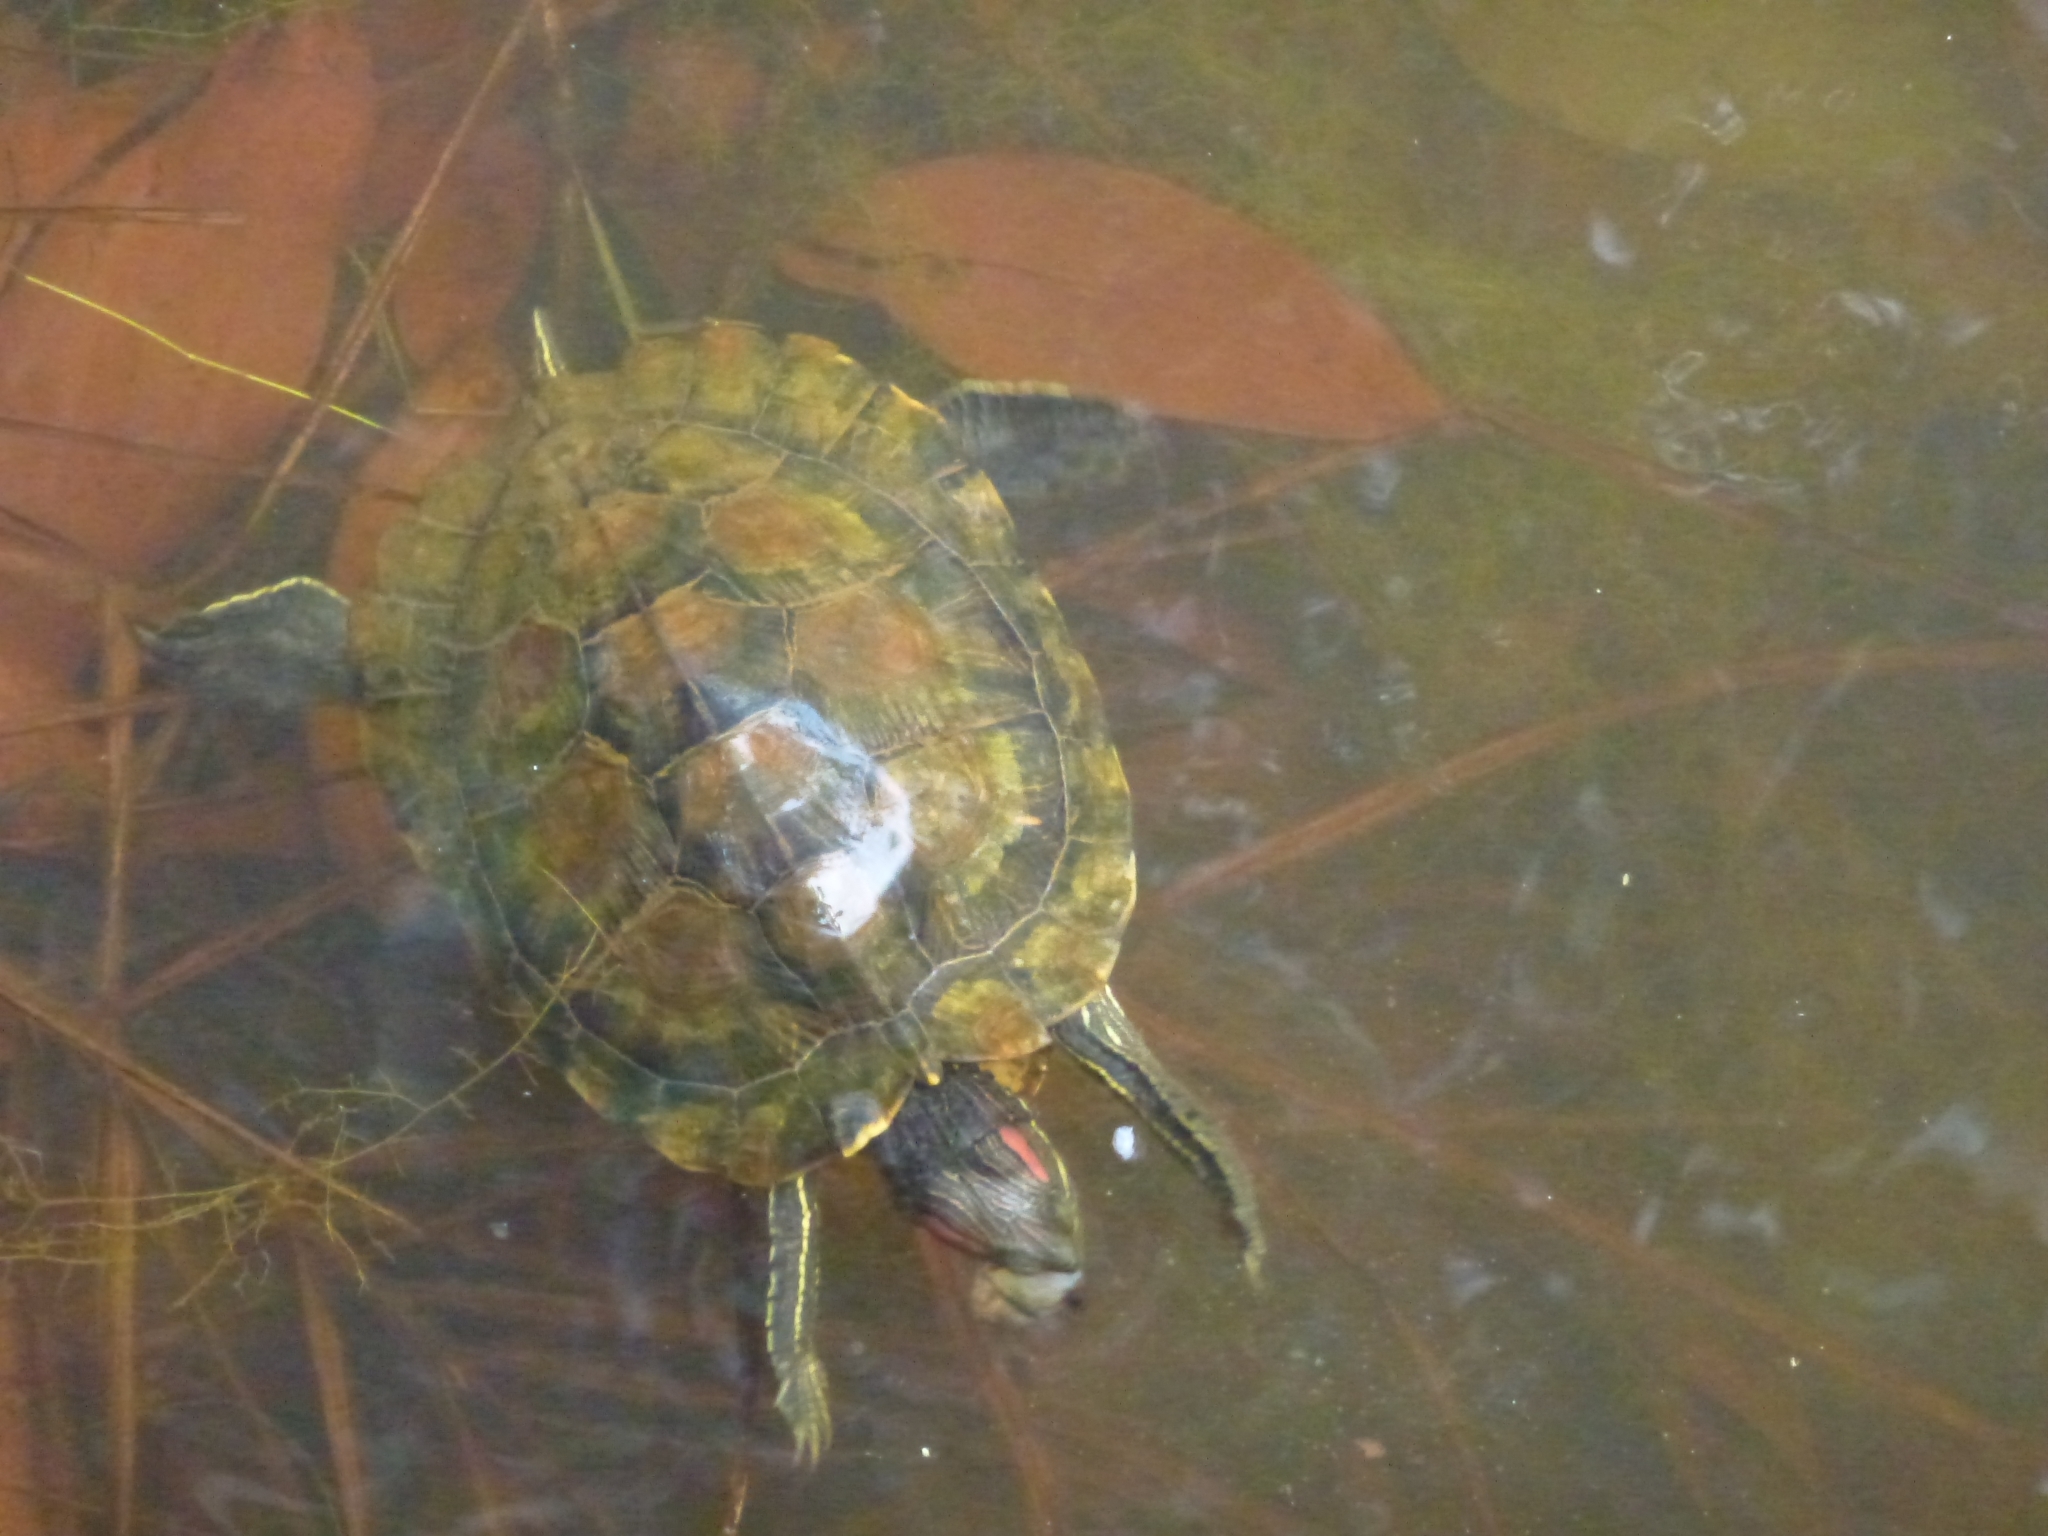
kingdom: Animalia
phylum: Chordata
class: Testudines
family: Emydidae
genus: Trachemys
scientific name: Trachemys scripta
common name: Slider
